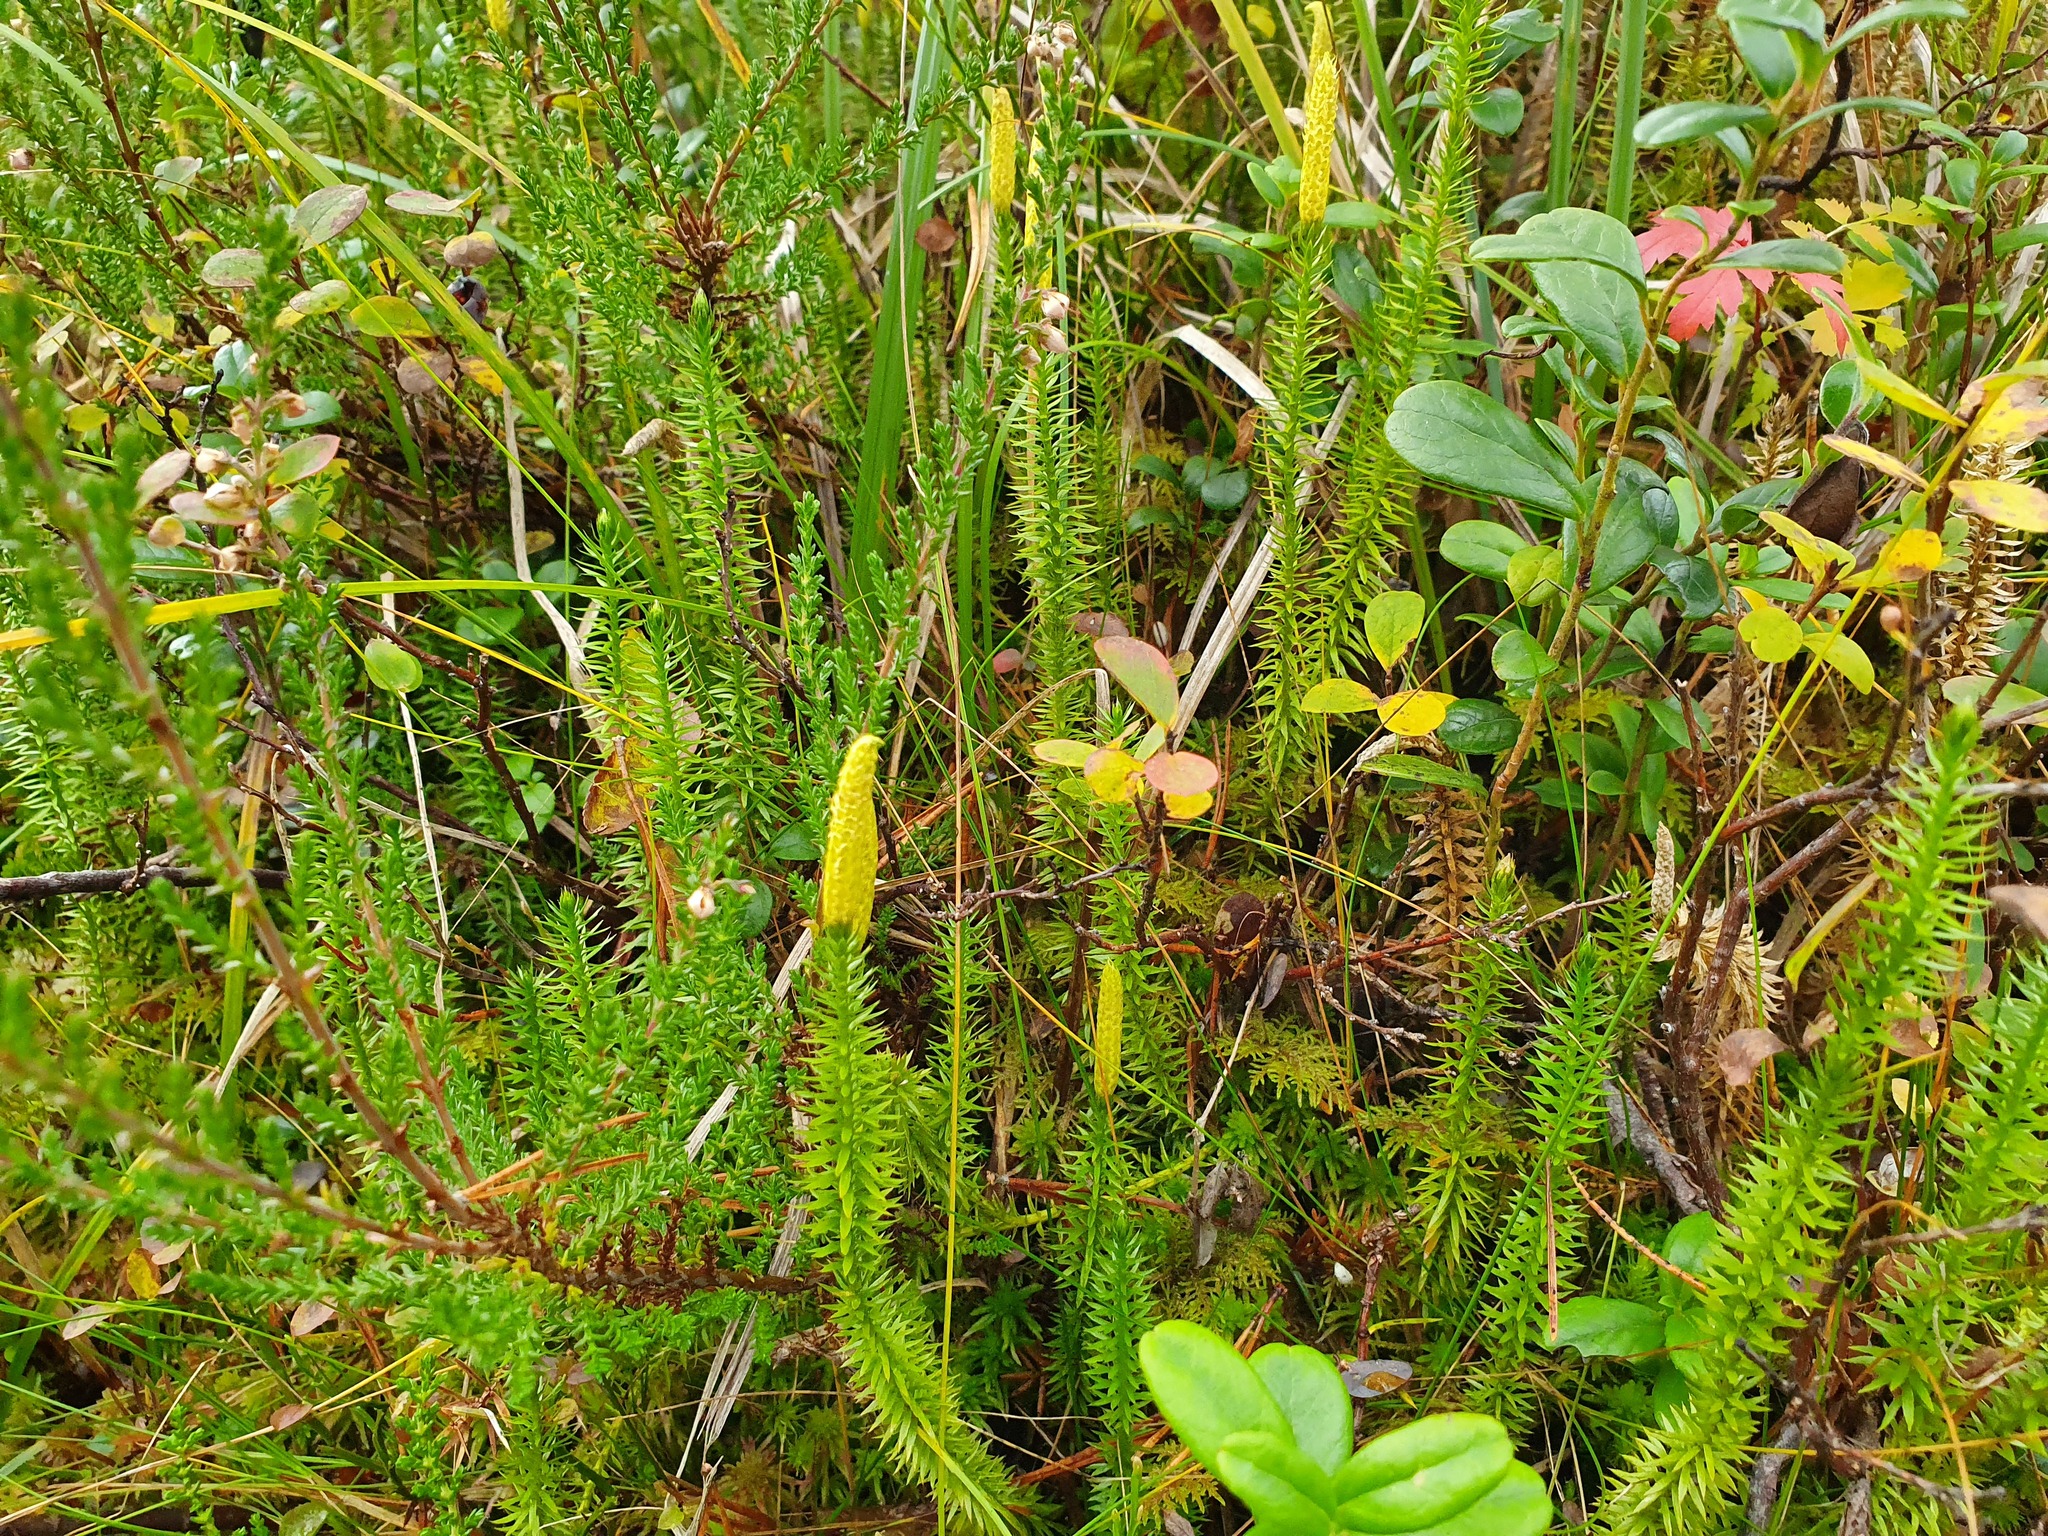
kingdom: Plantae
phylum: Tracheophyta
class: Lycopodiopsida
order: Lycopodiales
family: Lycopodiaceae
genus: Spinulum
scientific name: Spinulum annotinum
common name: Interrupted club-moss
